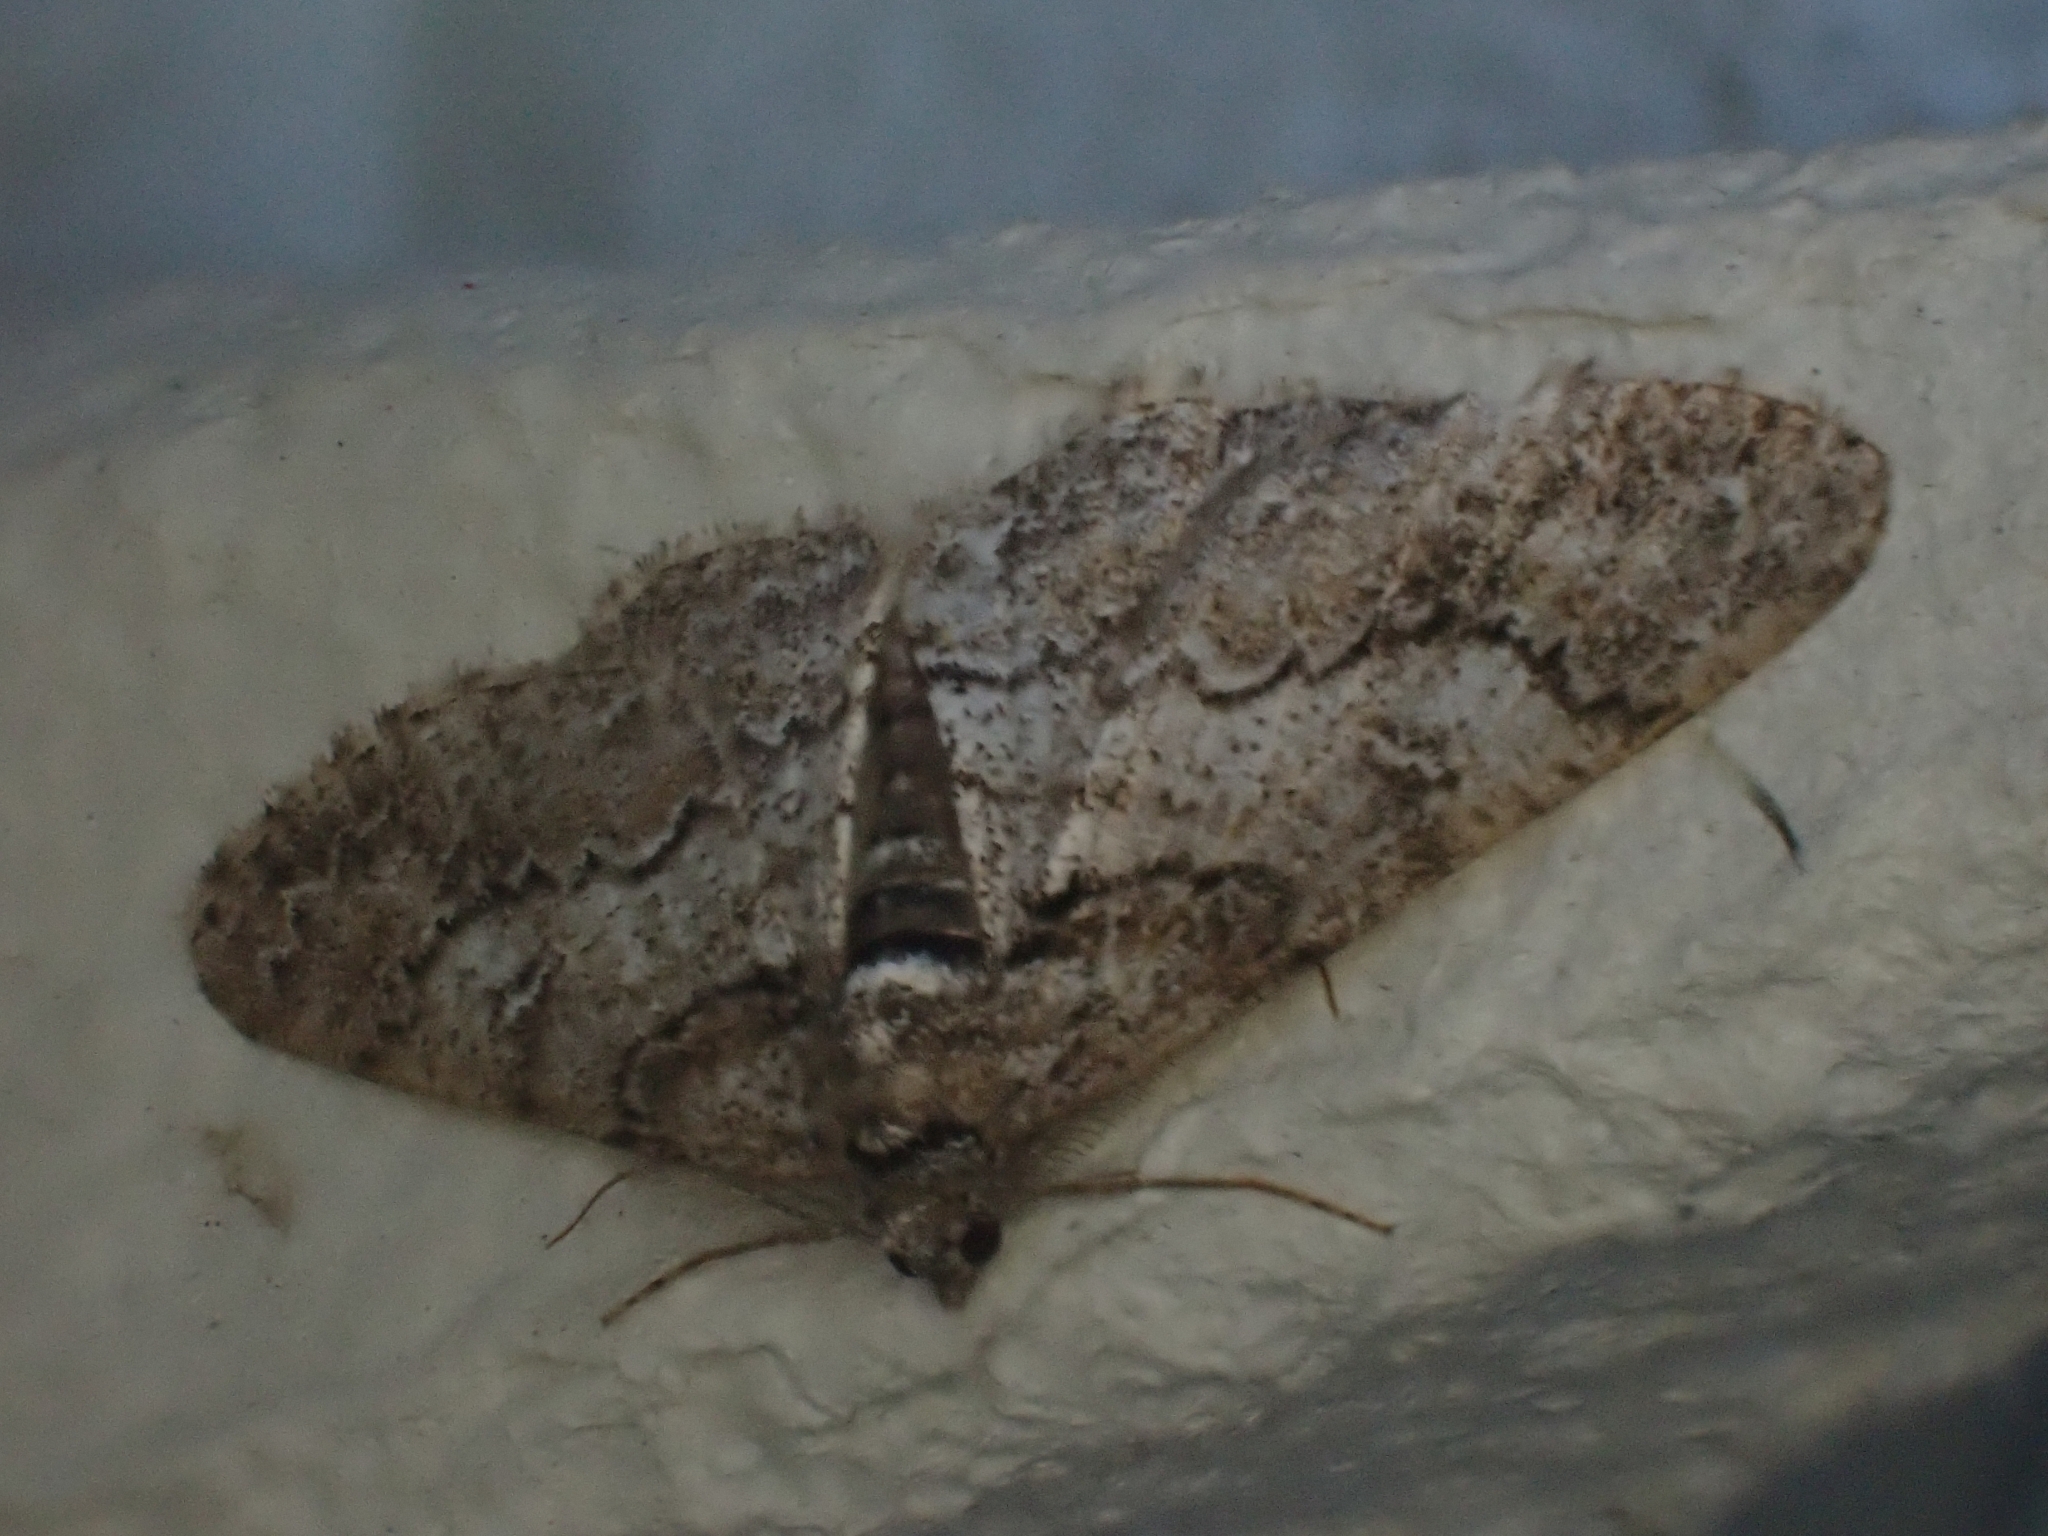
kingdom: Animalia
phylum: Arthropoda
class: Insecta
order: Lepidoptera
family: Geometridae
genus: Cleora
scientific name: Cleora cinctaria
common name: Ringed carpet
